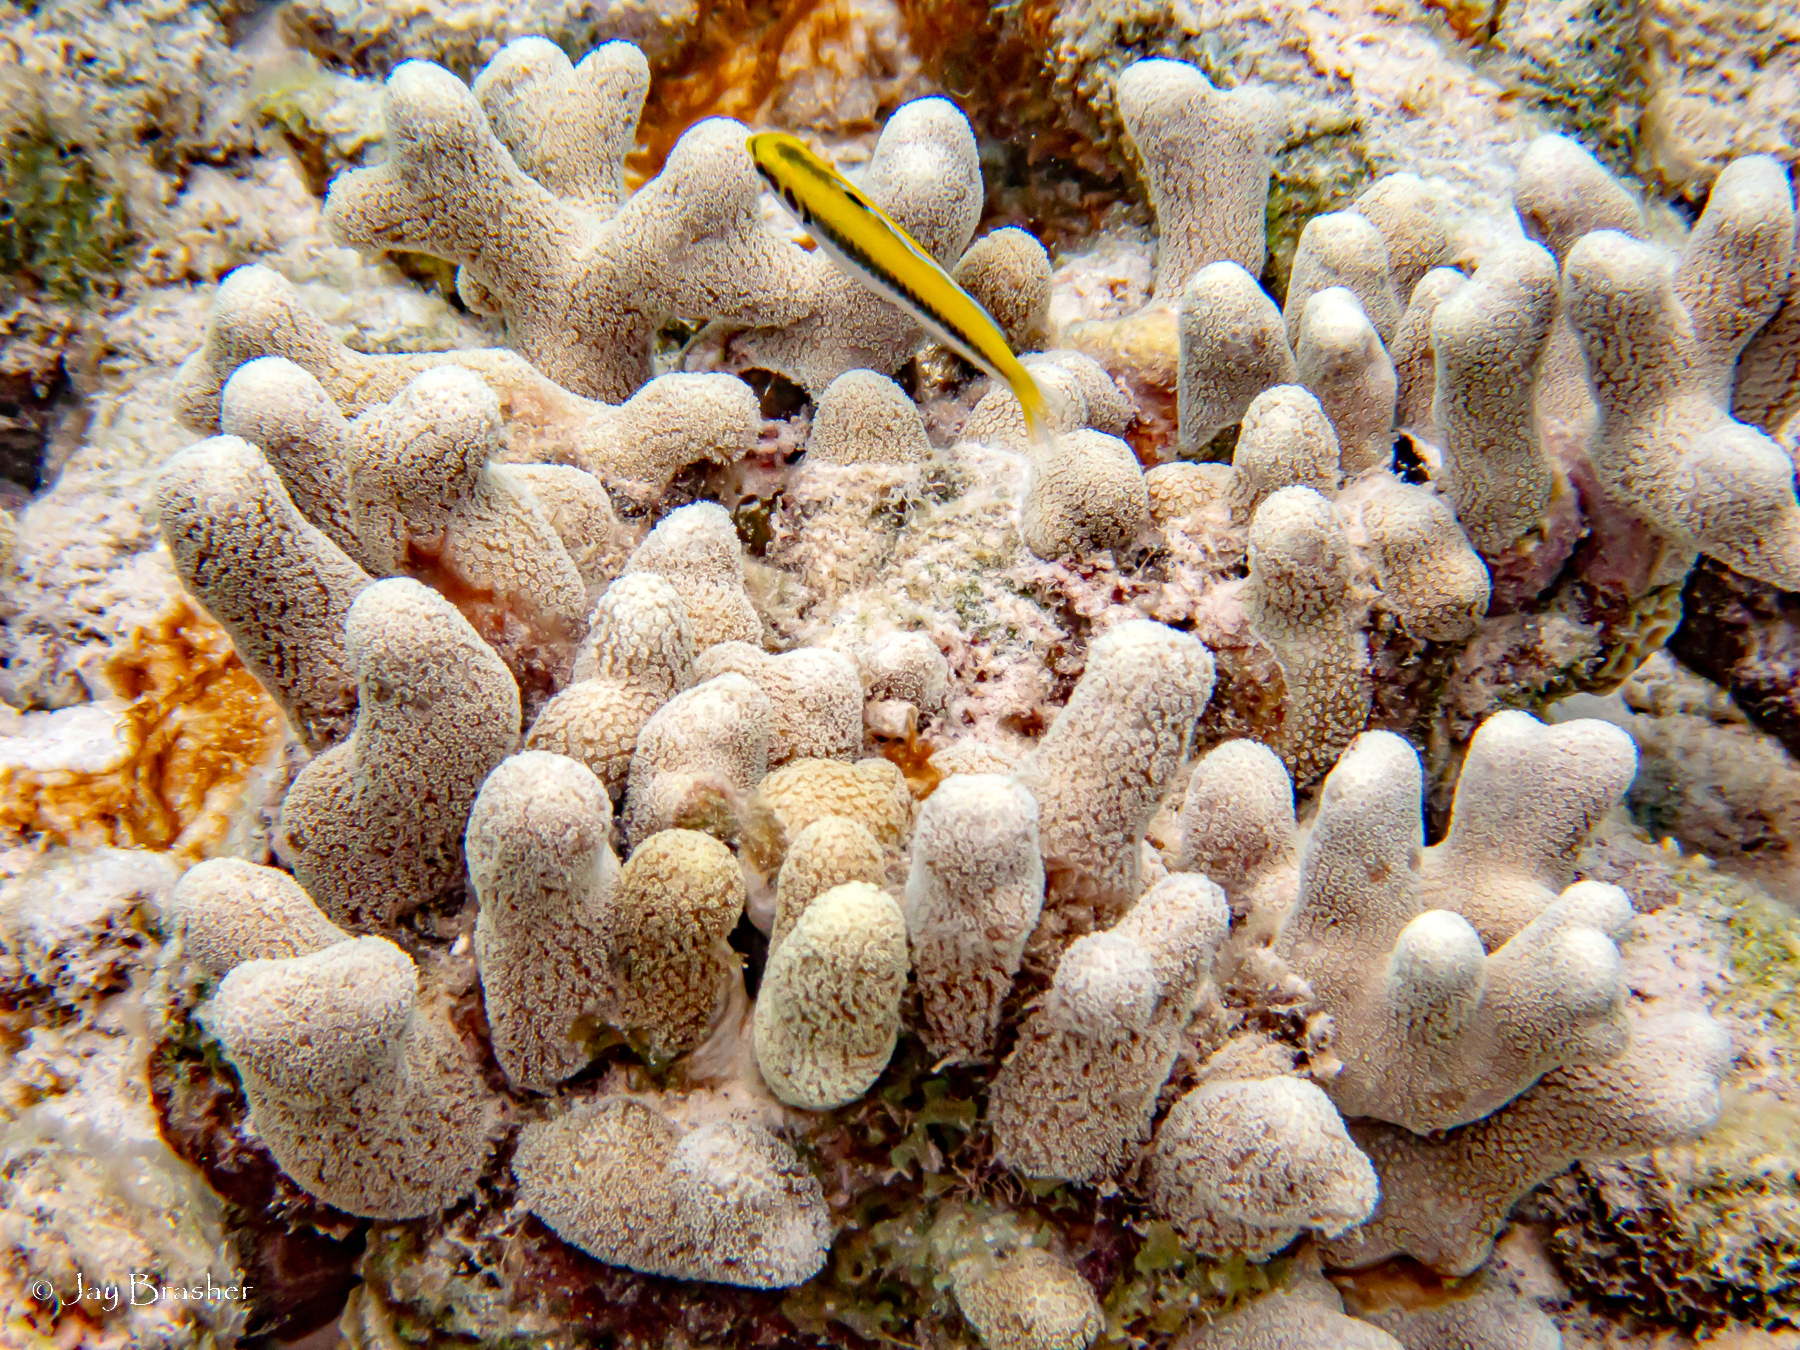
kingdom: Animalia
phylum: Chordata
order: Perciformes
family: Labridae
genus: Thalassoma
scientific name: Thalassoma bifasciatum
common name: Bluehead wrasse
